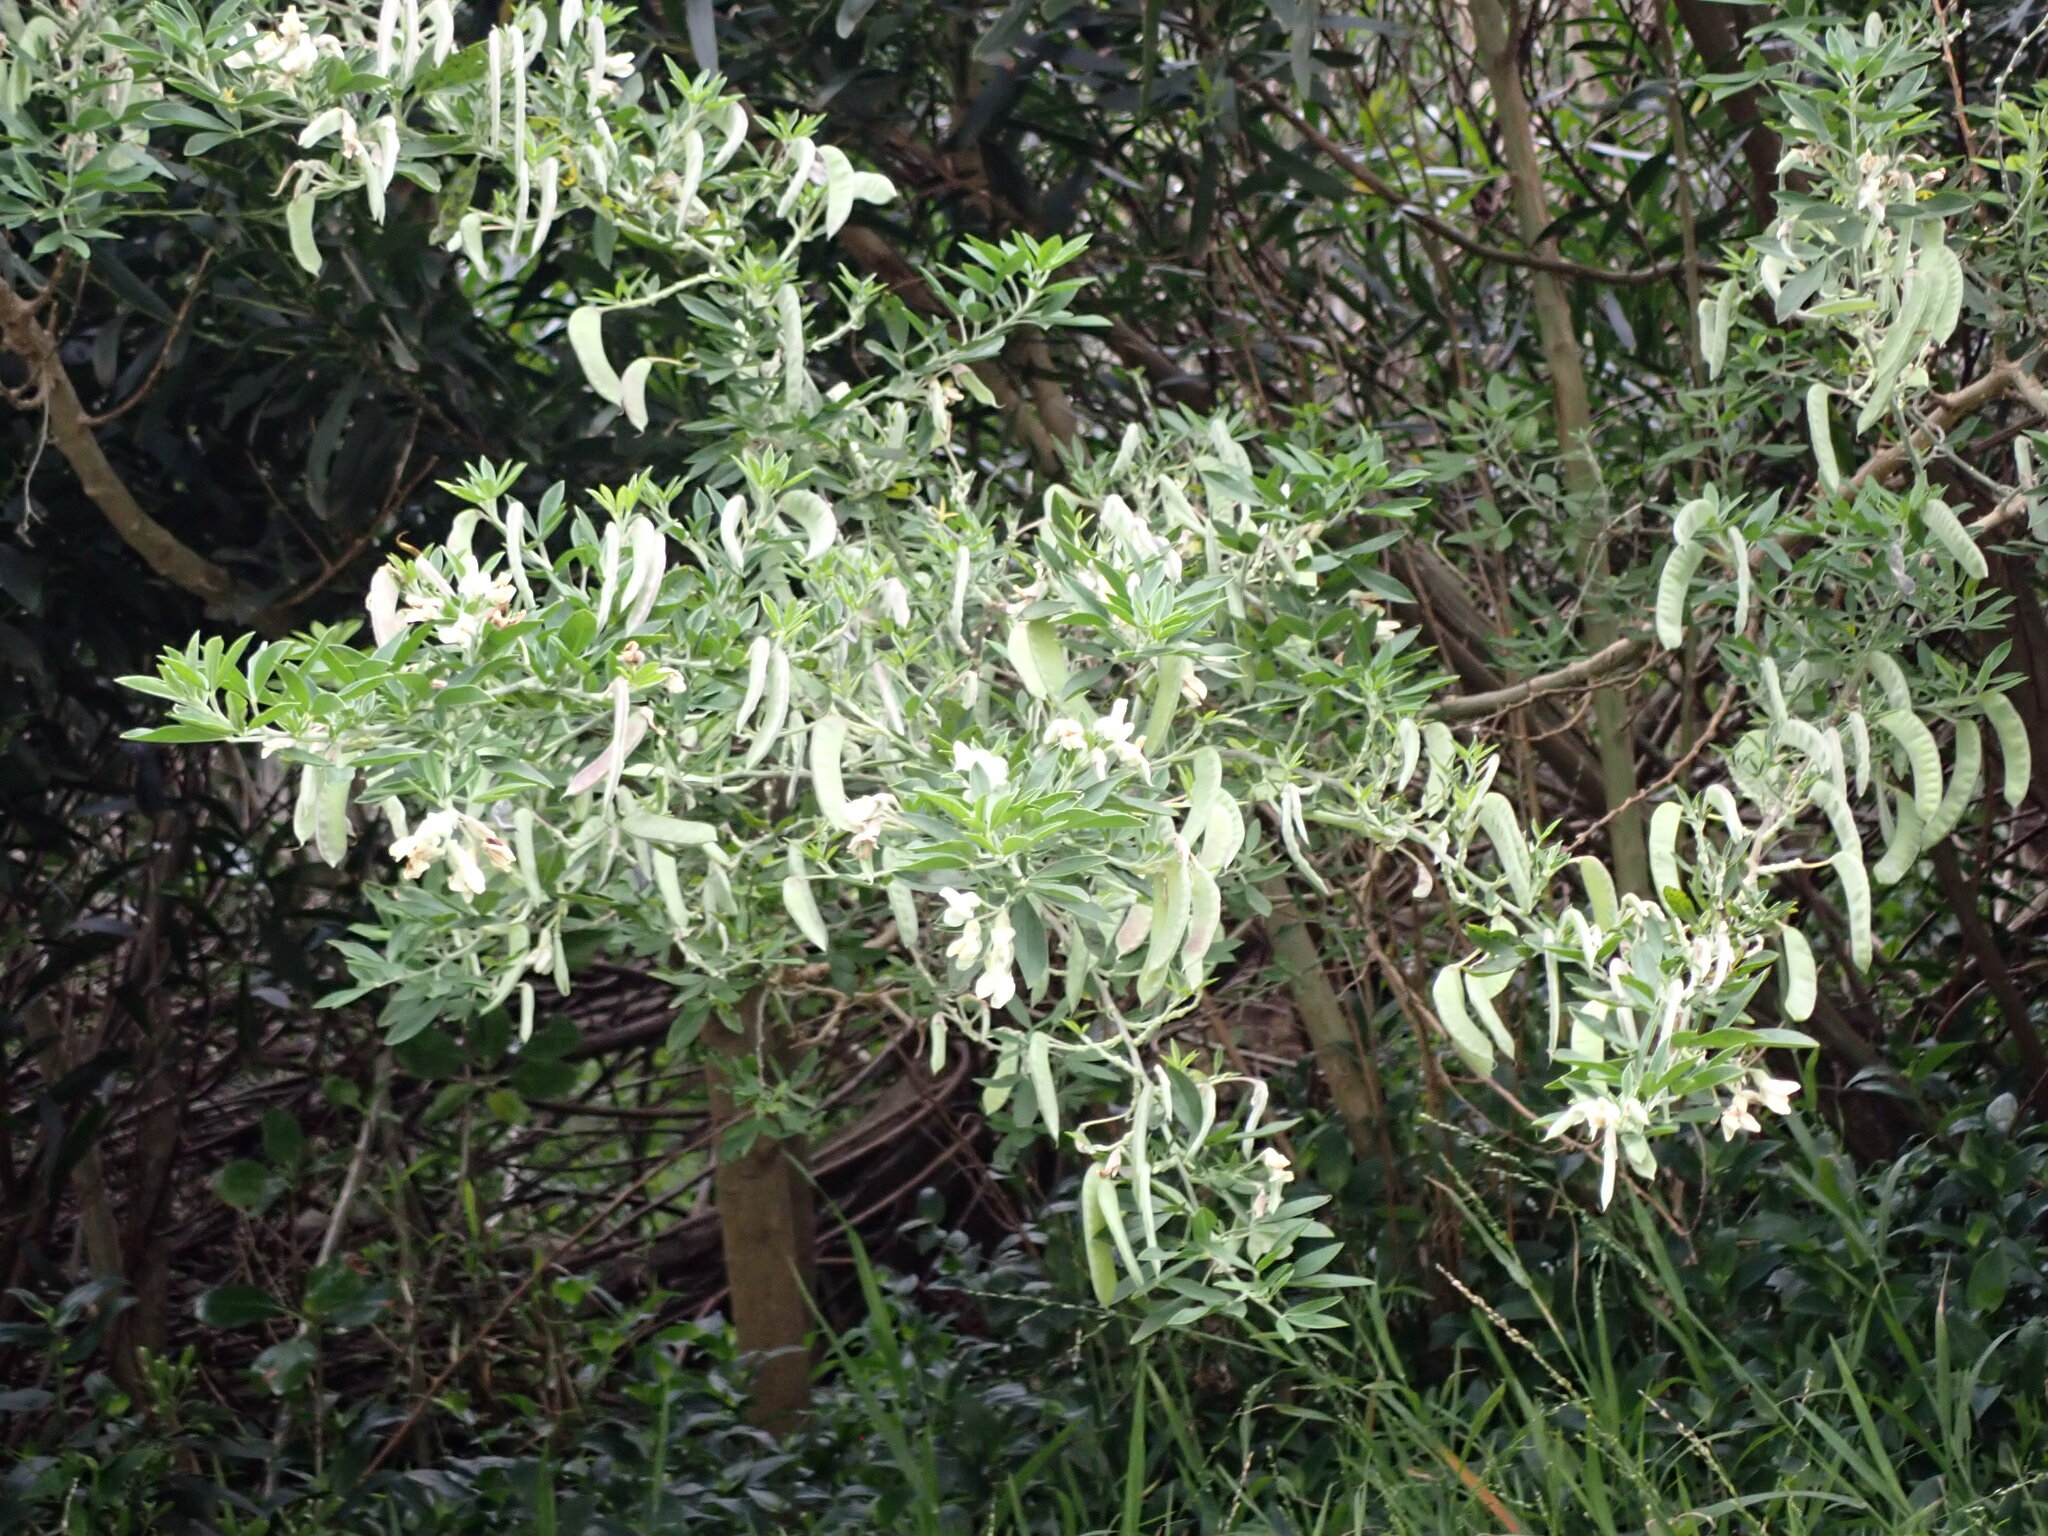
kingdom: Plantae
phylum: Tracheophyta
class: Magnoliopsida
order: Fabales
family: Fabaceae
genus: Chamaecytisus
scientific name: Chamaecytisus prolifer
